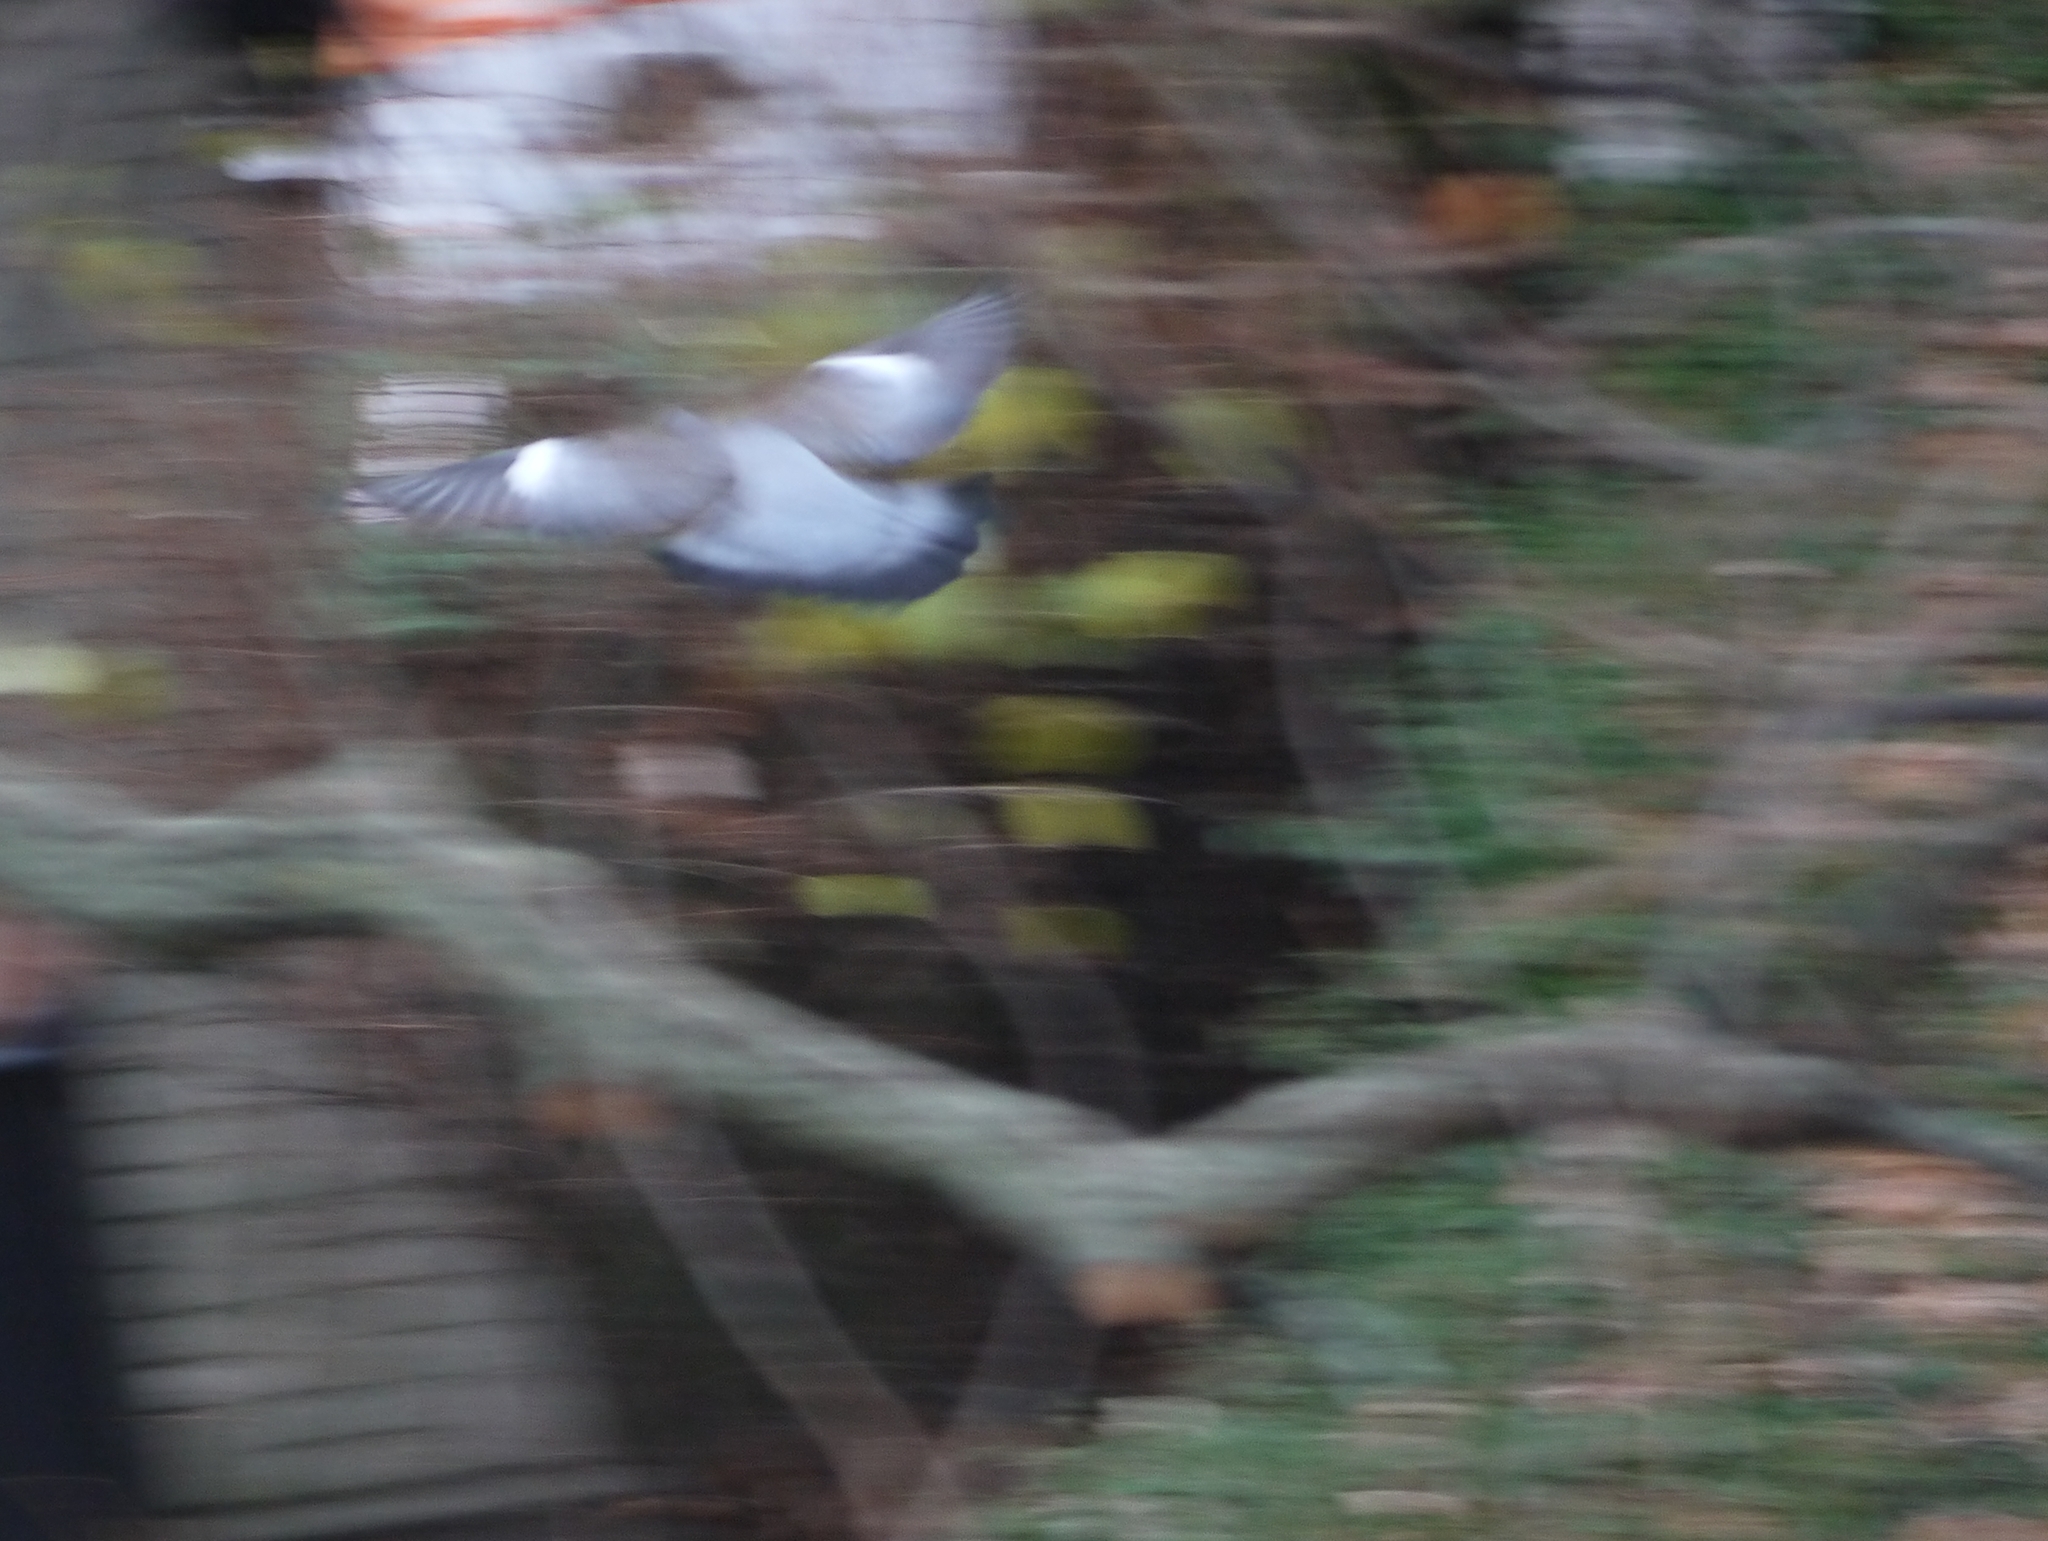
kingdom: Animalia
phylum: Chordata
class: Aves
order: Columbiformes
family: Columbidae
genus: Columba
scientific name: Columba palumbus
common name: Common wood pigeon
